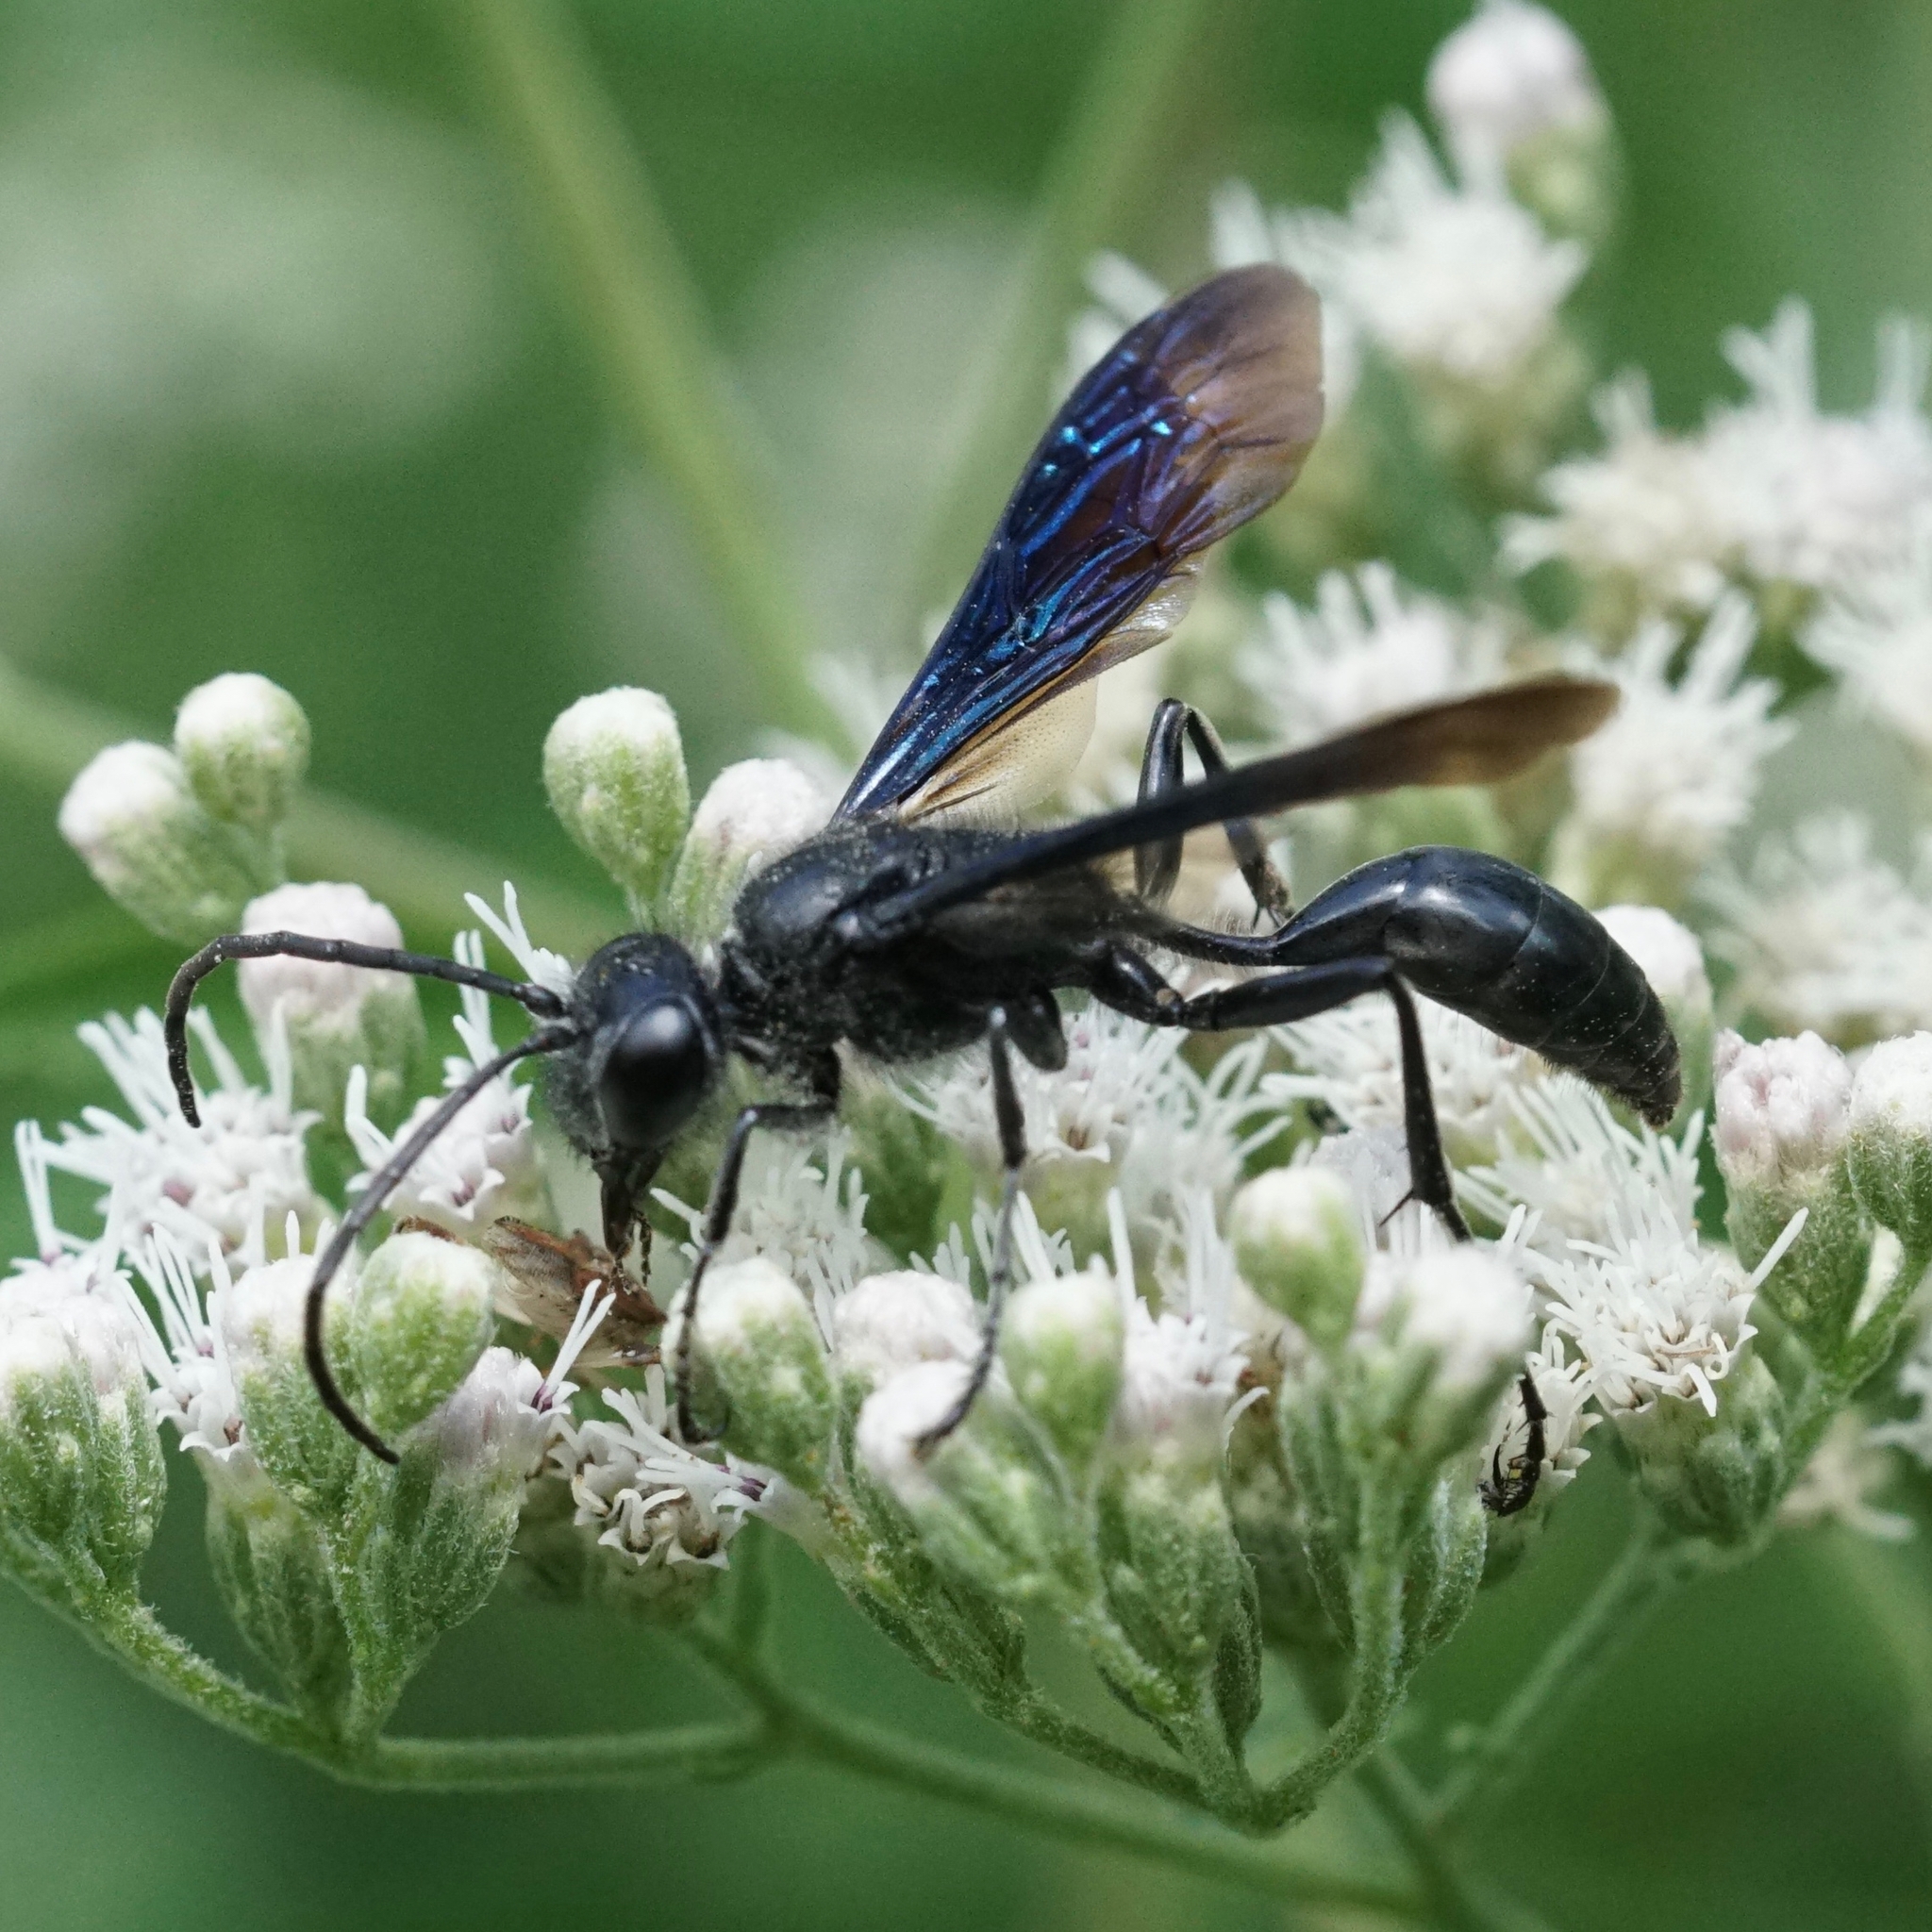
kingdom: Animalia
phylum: Arthropoda
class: Insecta
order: Hymenoptera
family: Sphecidae
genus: Isodontia
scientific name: Isodontia philadelphica
